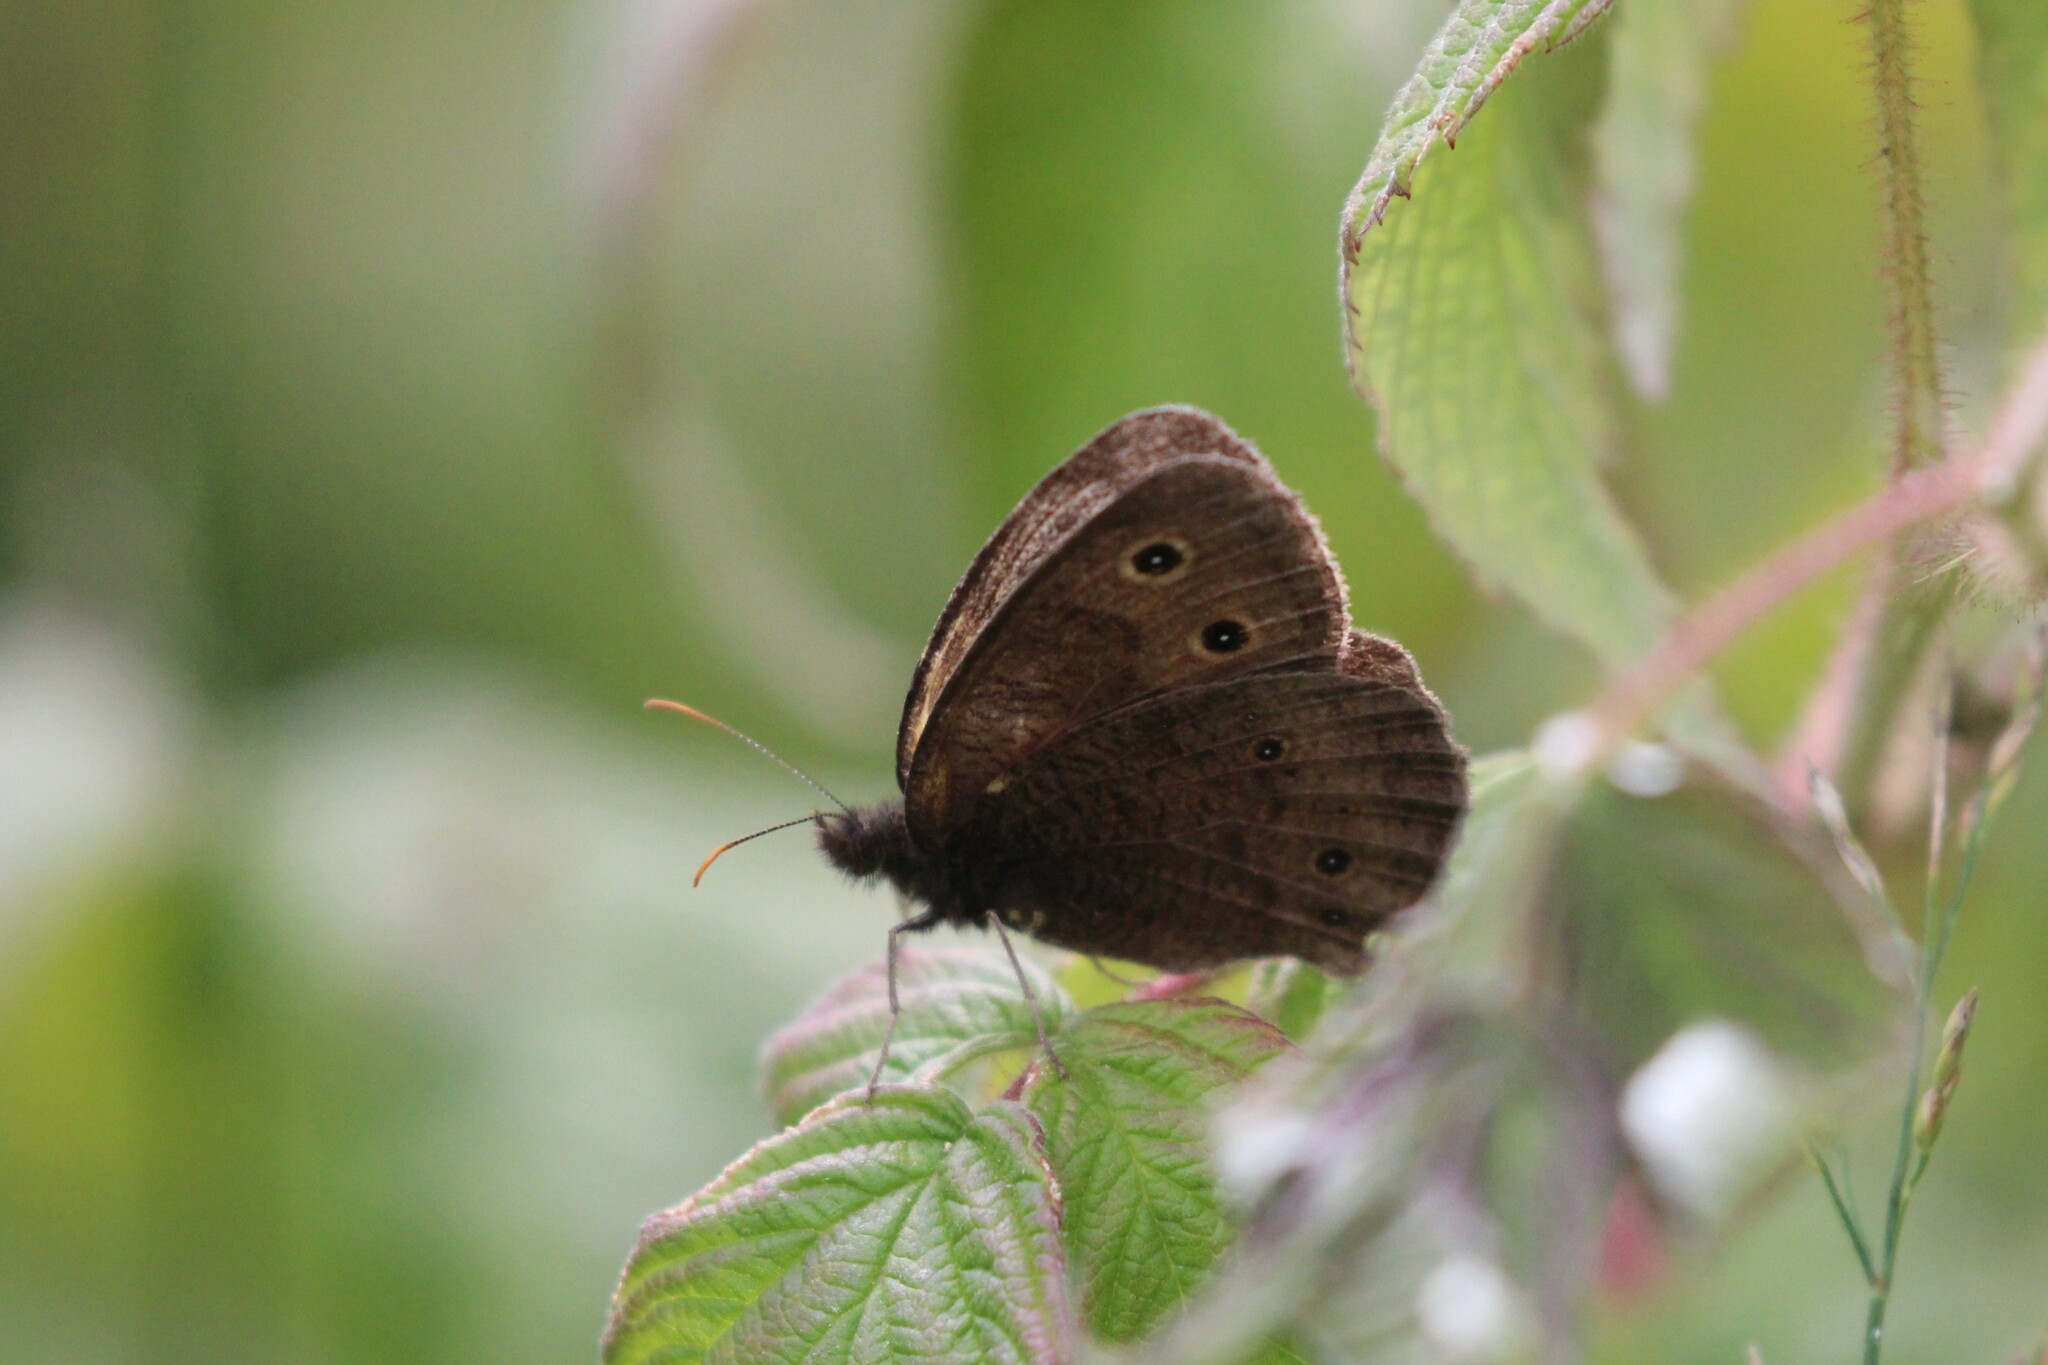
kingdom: Animalia
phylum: Arthropoda
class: Insecta
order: Lepidoptera
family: Nymphalidae
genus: Cercyonis
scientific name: Cercyonis pegala
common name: Common wood-nymph
